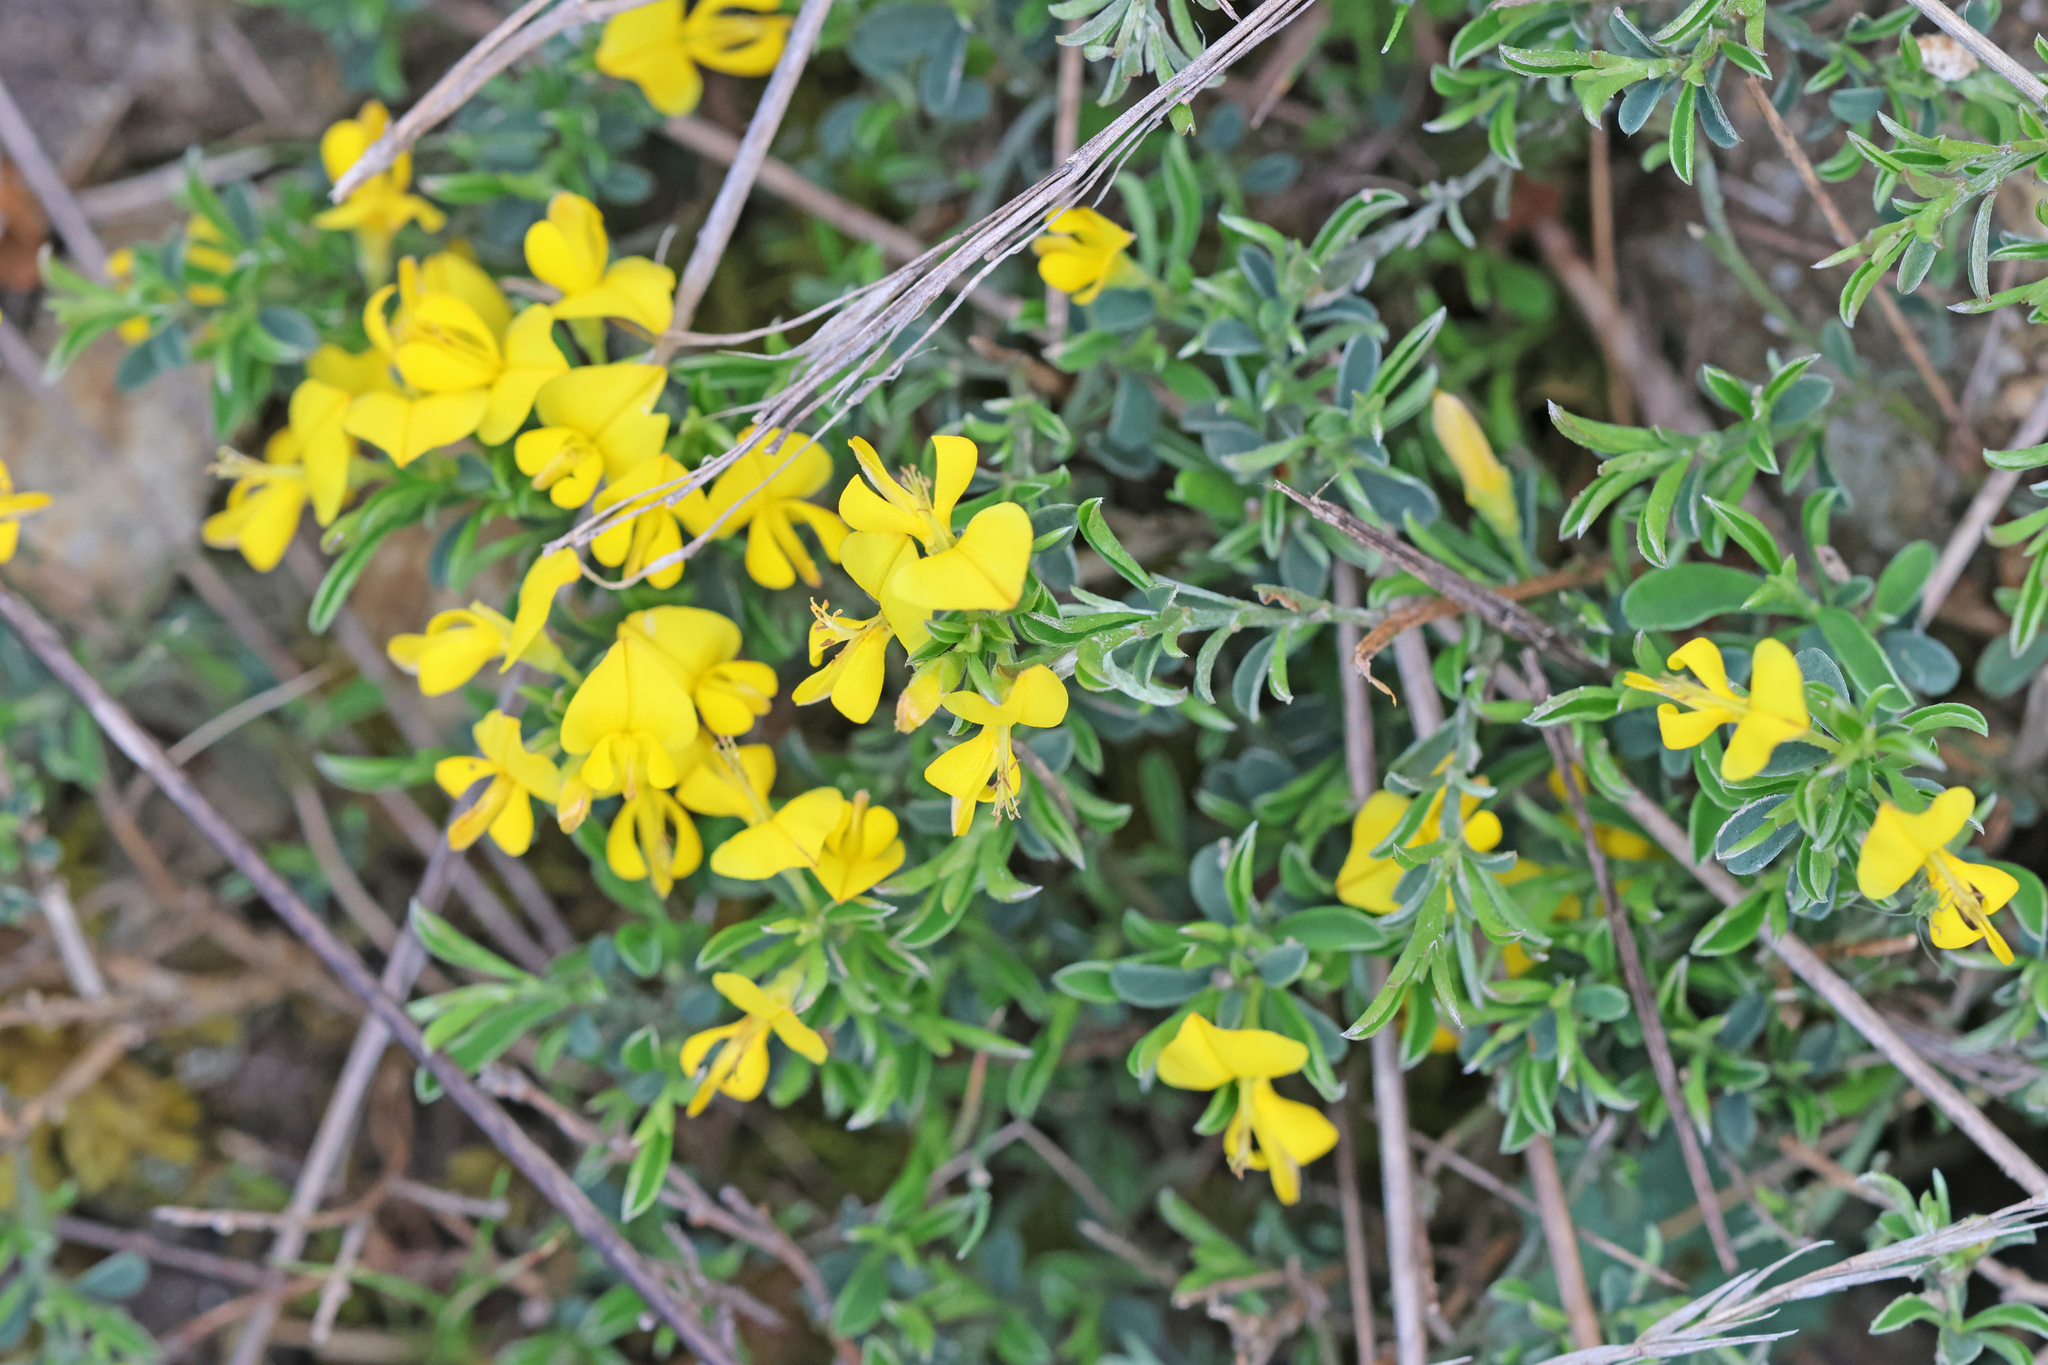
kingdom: Plantae
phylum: Tracheophyta
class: Magnoliopsida
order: Fabales
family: Fabaceae
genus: Genista
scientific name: Genista pilosa
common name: Hairy greenweed
